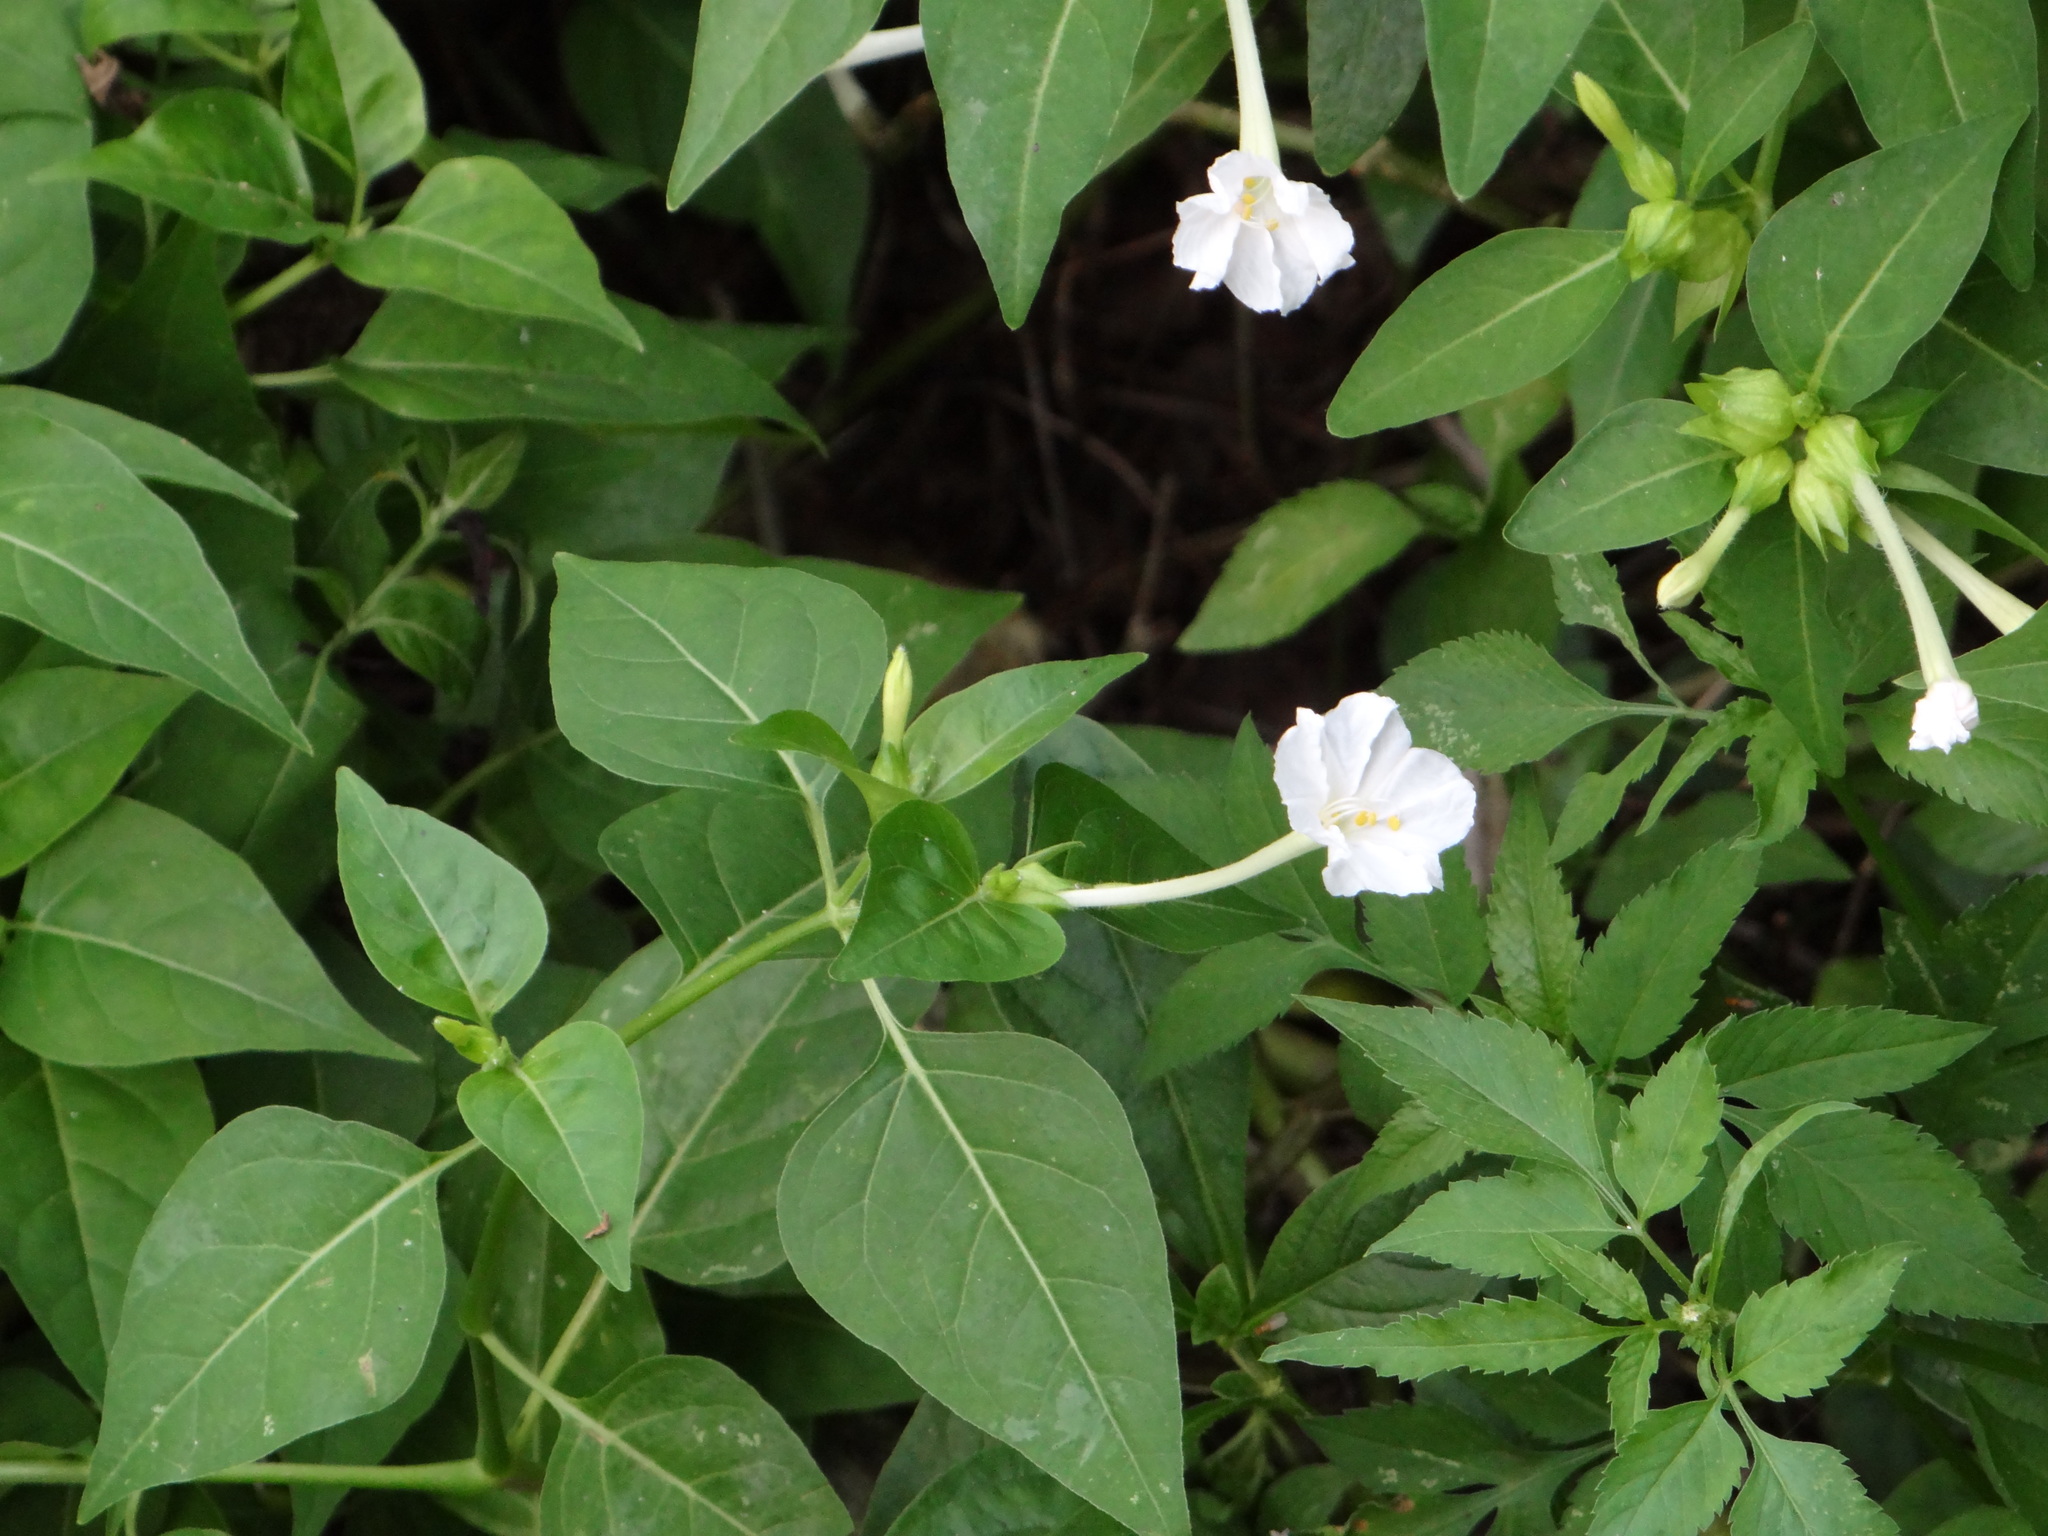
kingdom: Plantae
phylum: Tracheophyta
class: Magnoliopsida
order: Caryophyllales
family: Nyctaginaceae
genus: Mirabilis
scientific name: Mirabilis jalapa
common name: Marvel-of-peru
